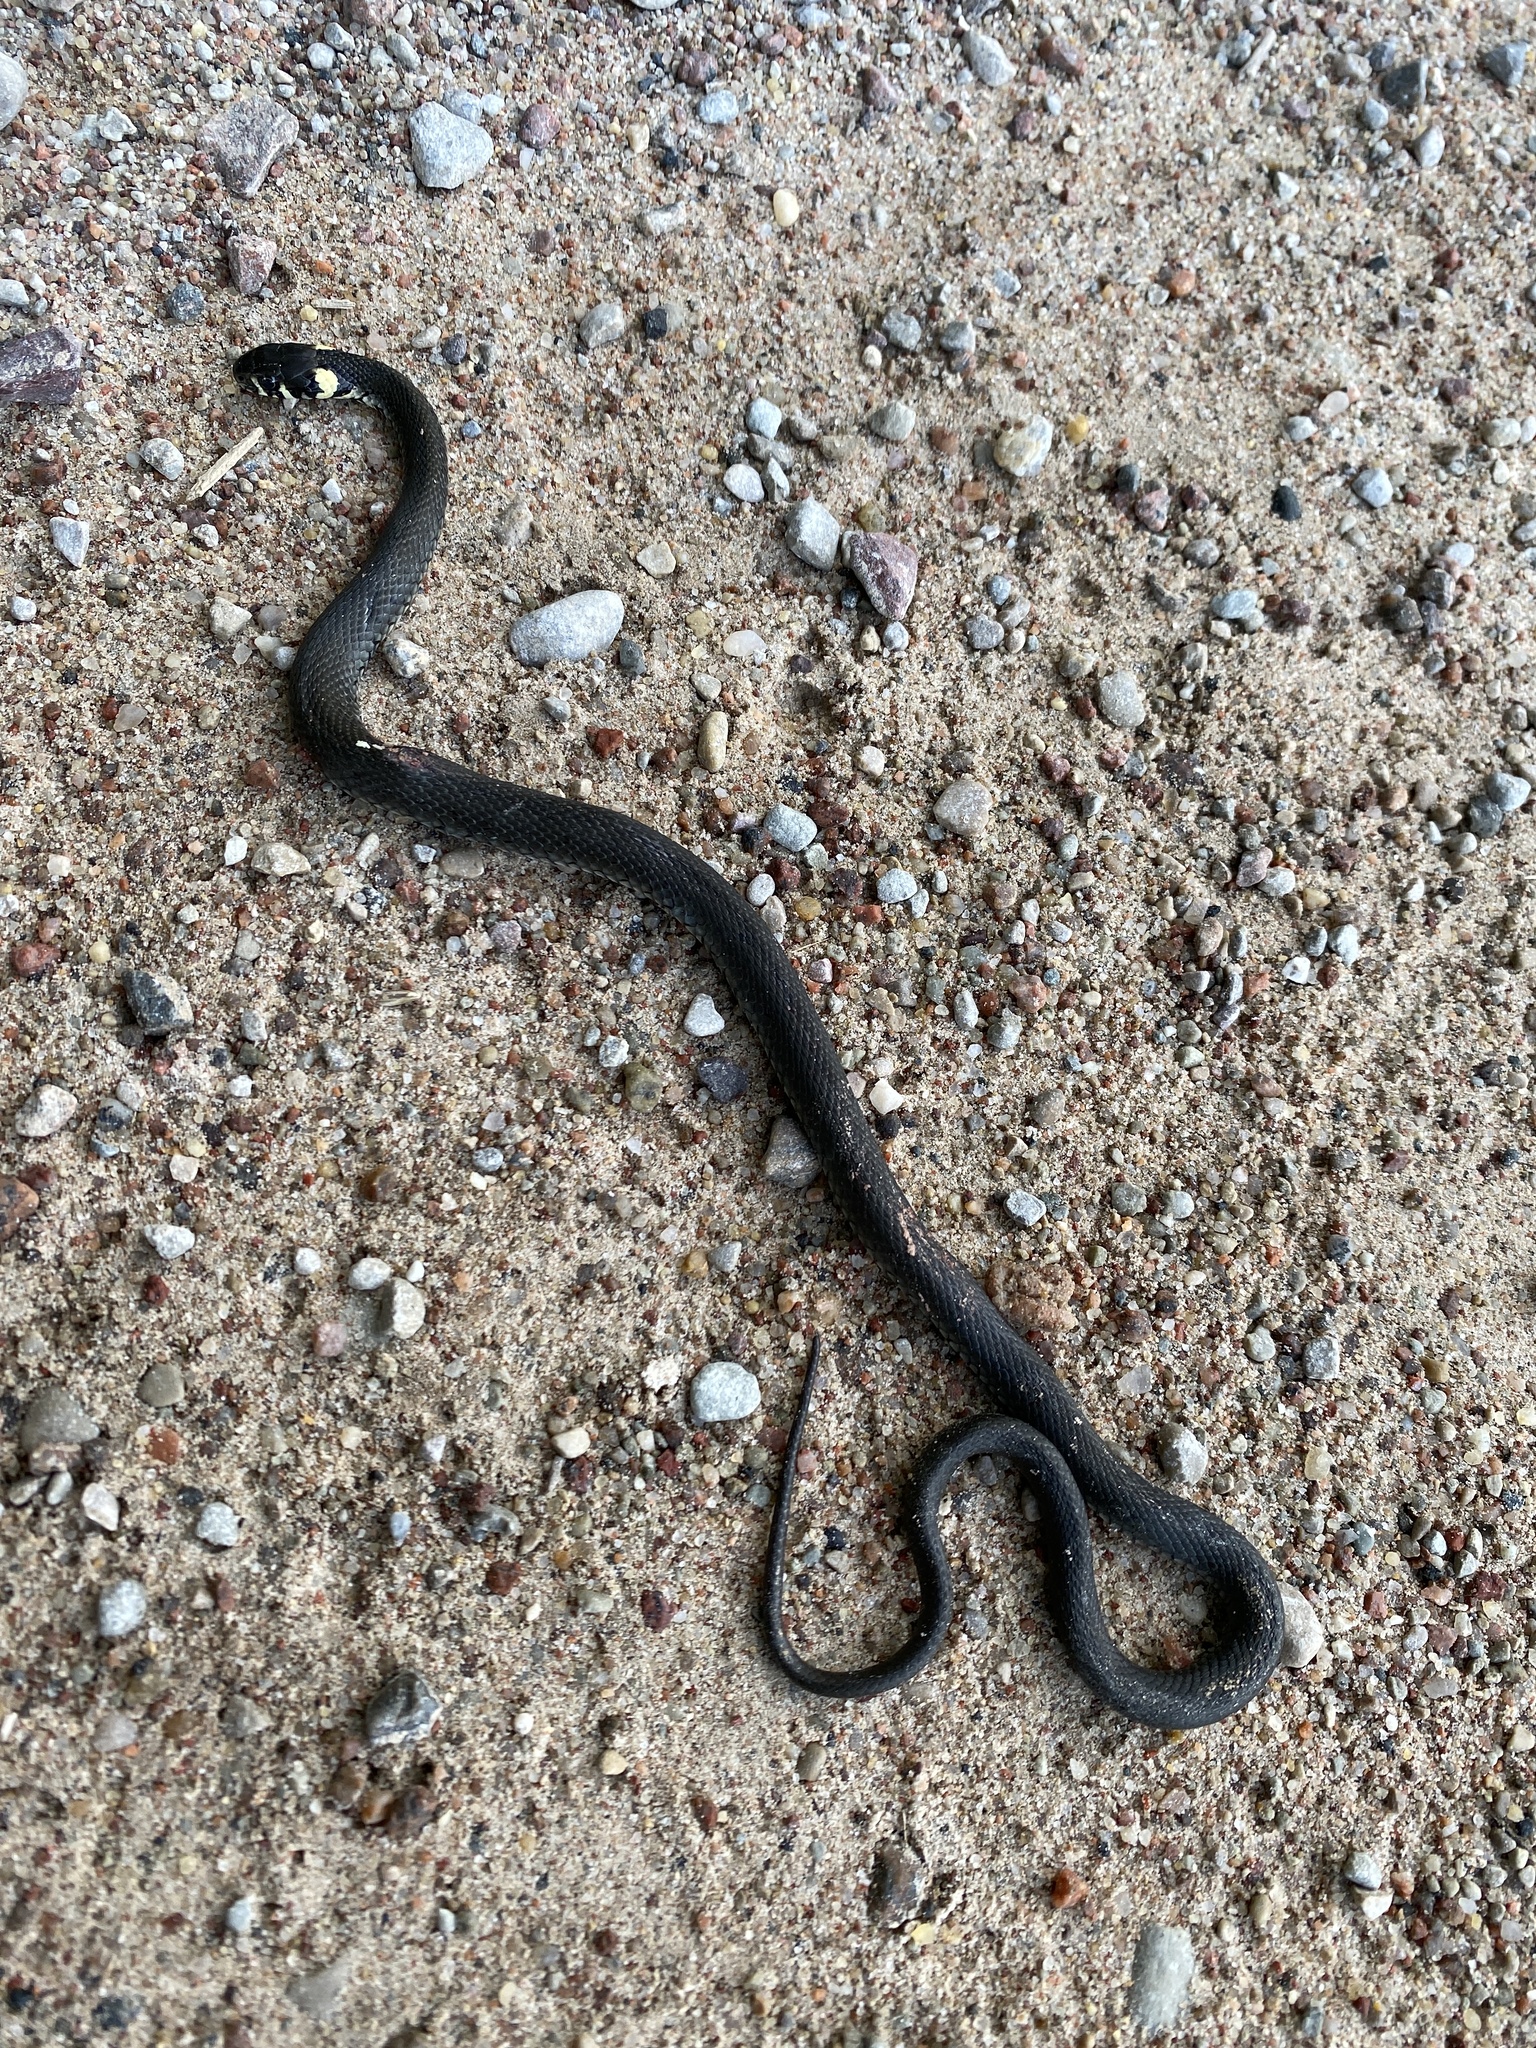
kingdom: Animalia
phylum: Chordata
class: Squamata
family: Colubridae
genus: Natrix
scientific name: Natrix natrix
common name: Grass snake
